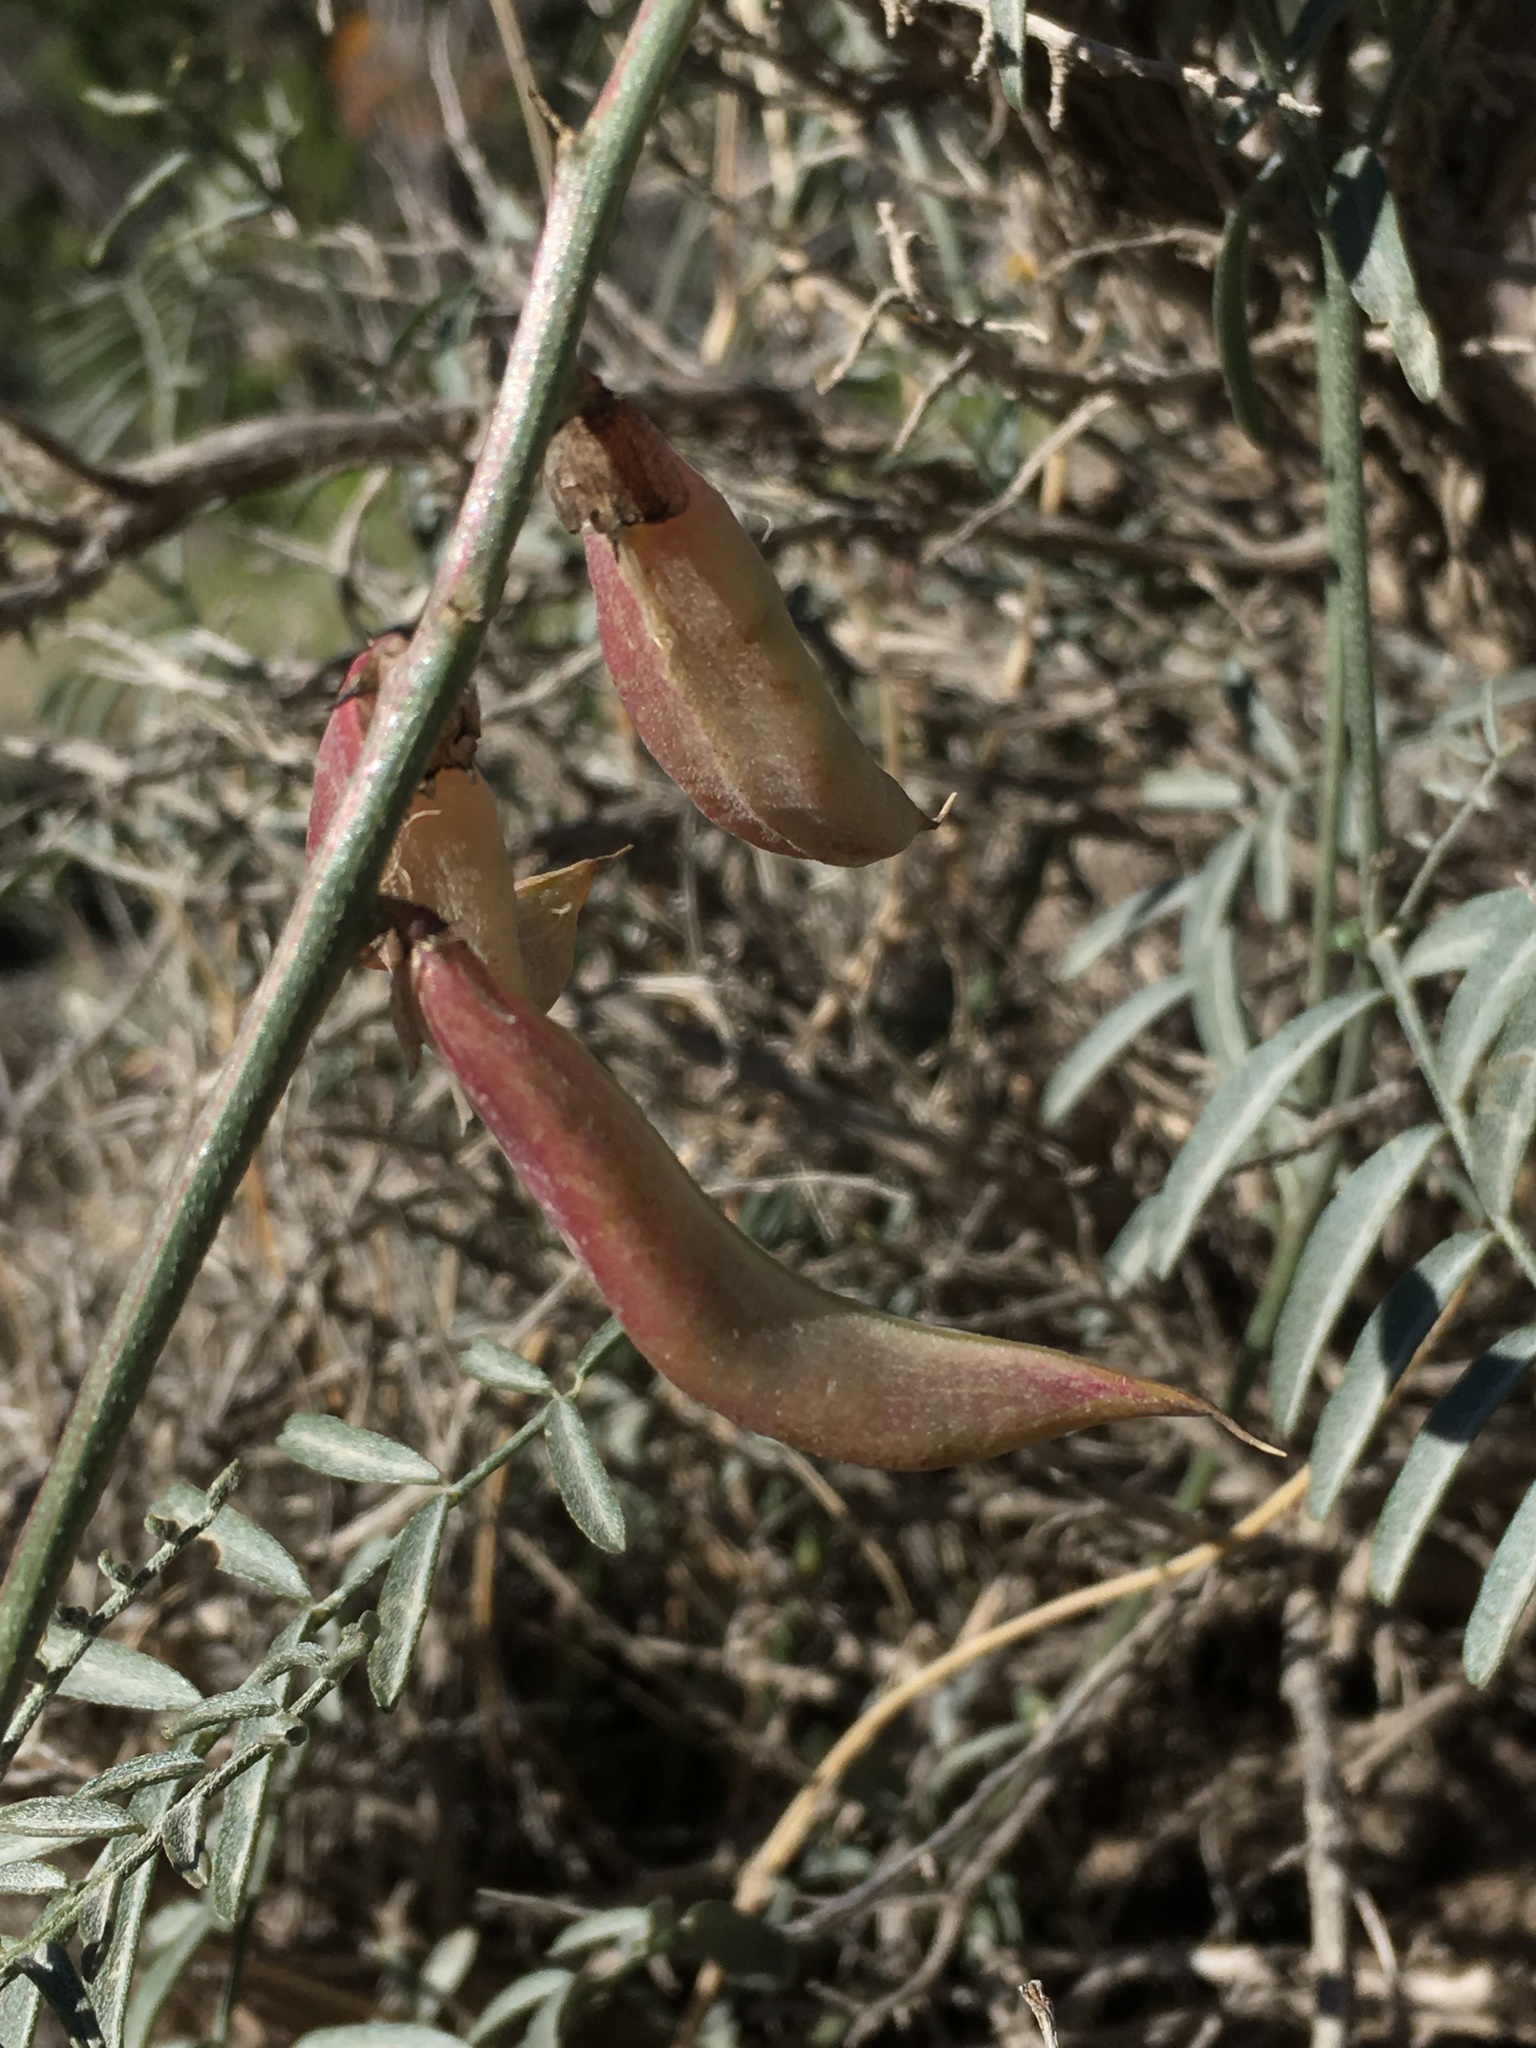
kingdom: Plantae
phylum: Tracheophyta
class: Magnoliopsida
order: Fabales
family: Fabaceae
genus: Astragalus
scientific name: Astragalus casei
